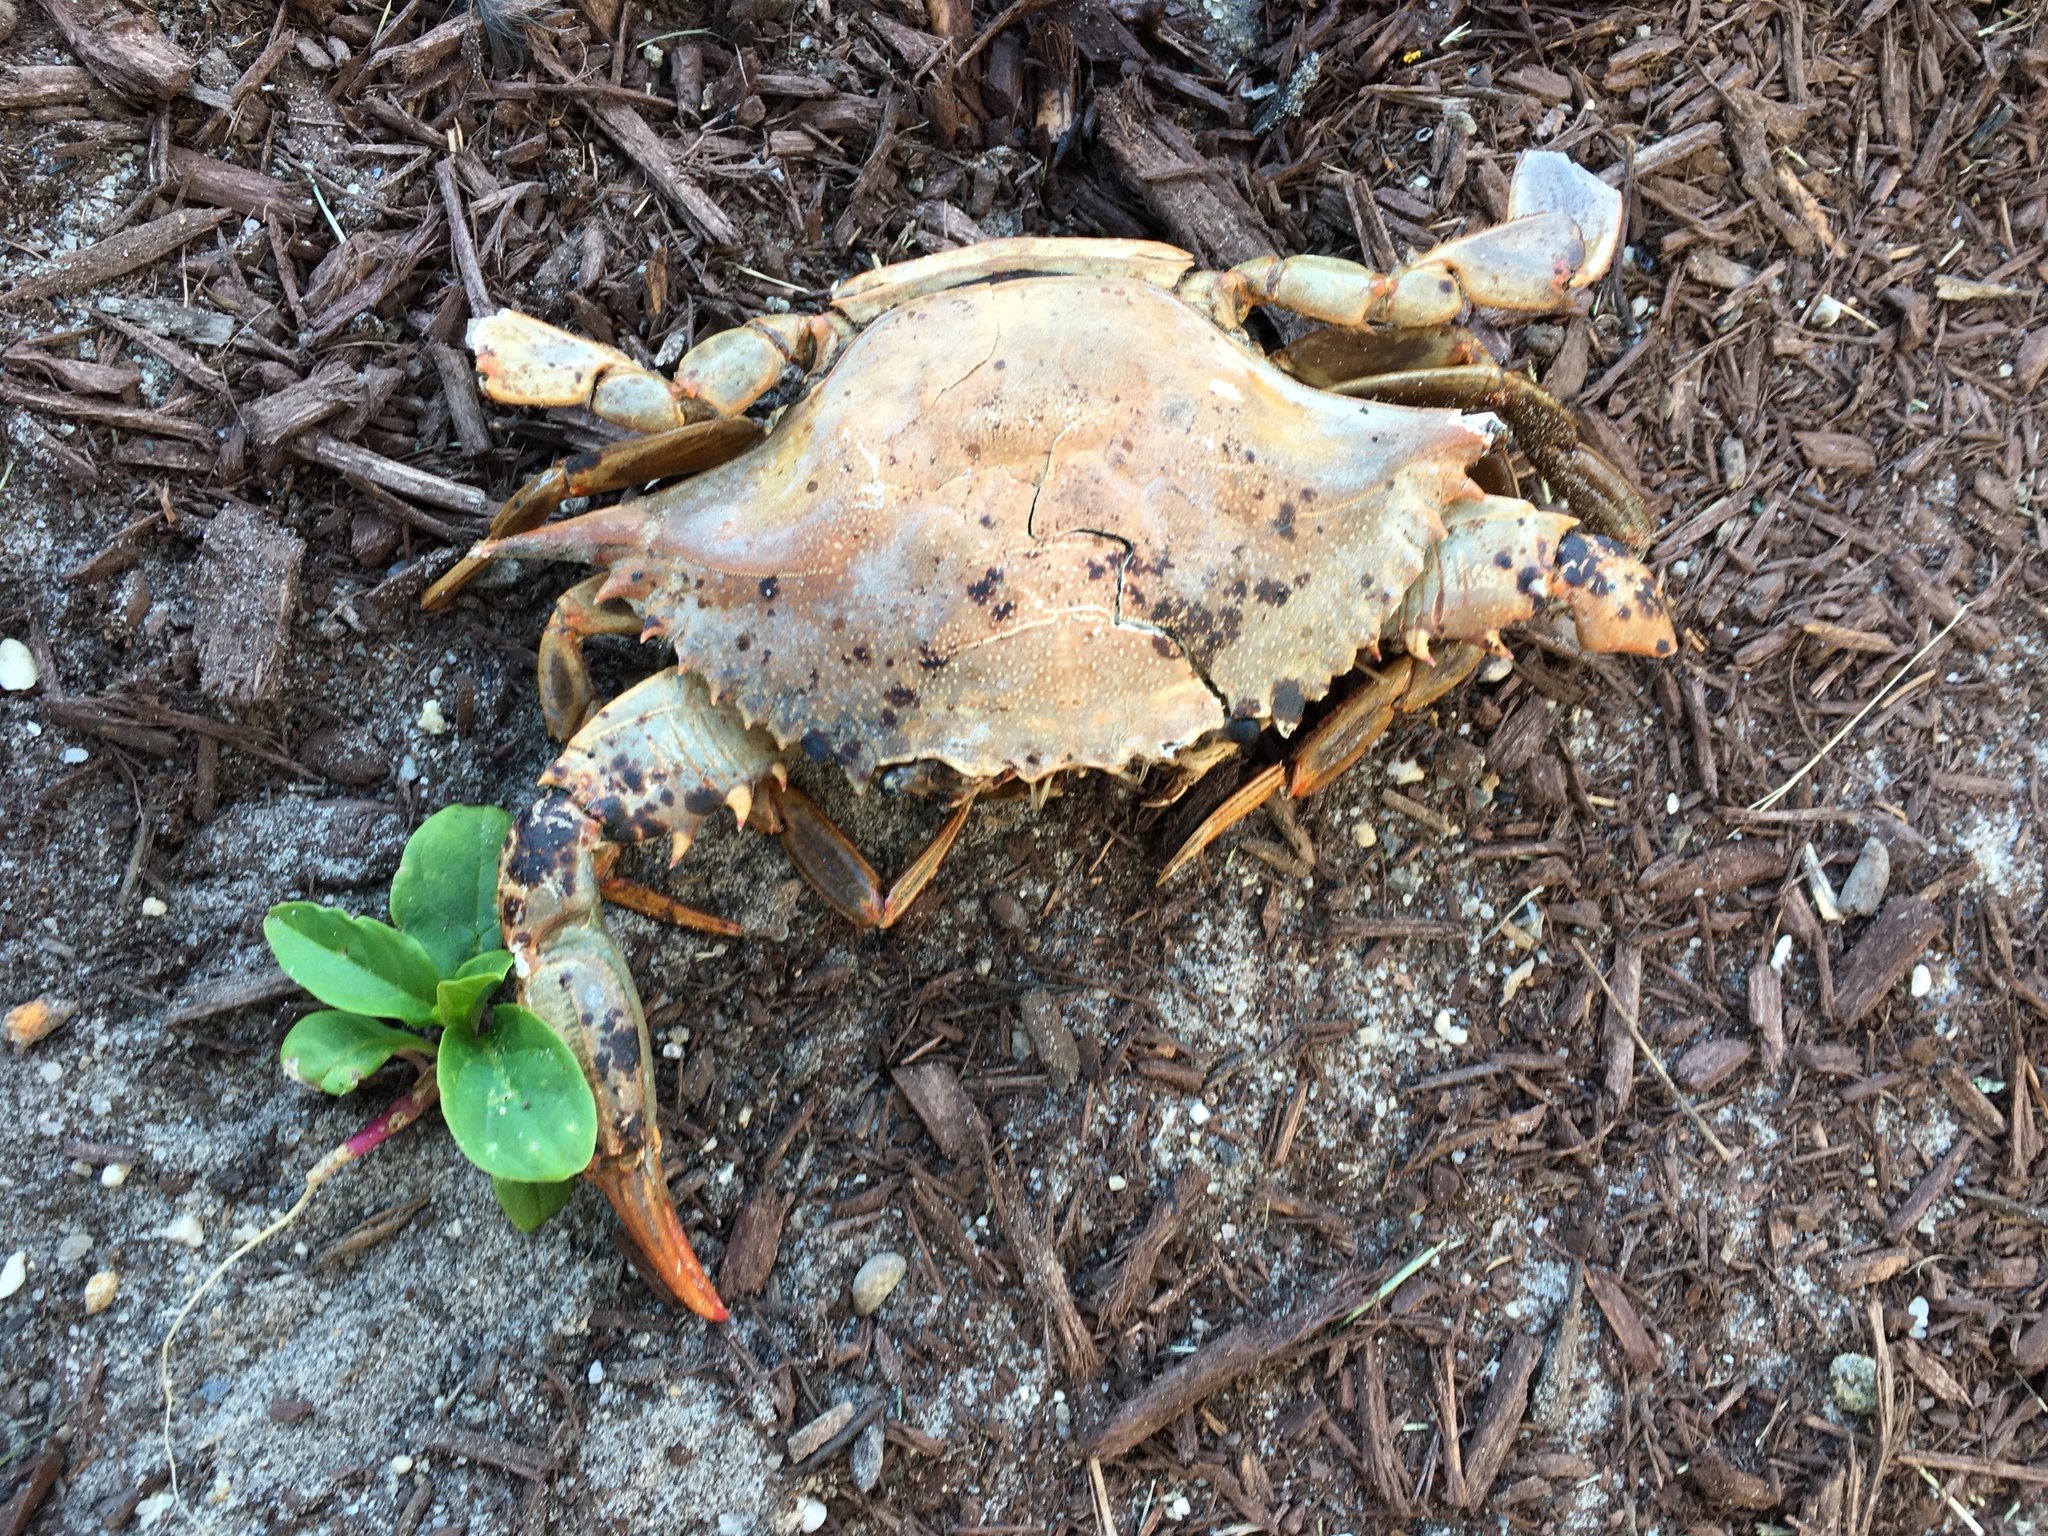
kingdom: Animalia
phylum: Arthropoda
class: Malacostraca
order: Decapoda
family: Portunidae
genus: Callinectes
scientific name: Callinectes sapidus
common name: Blue crab
